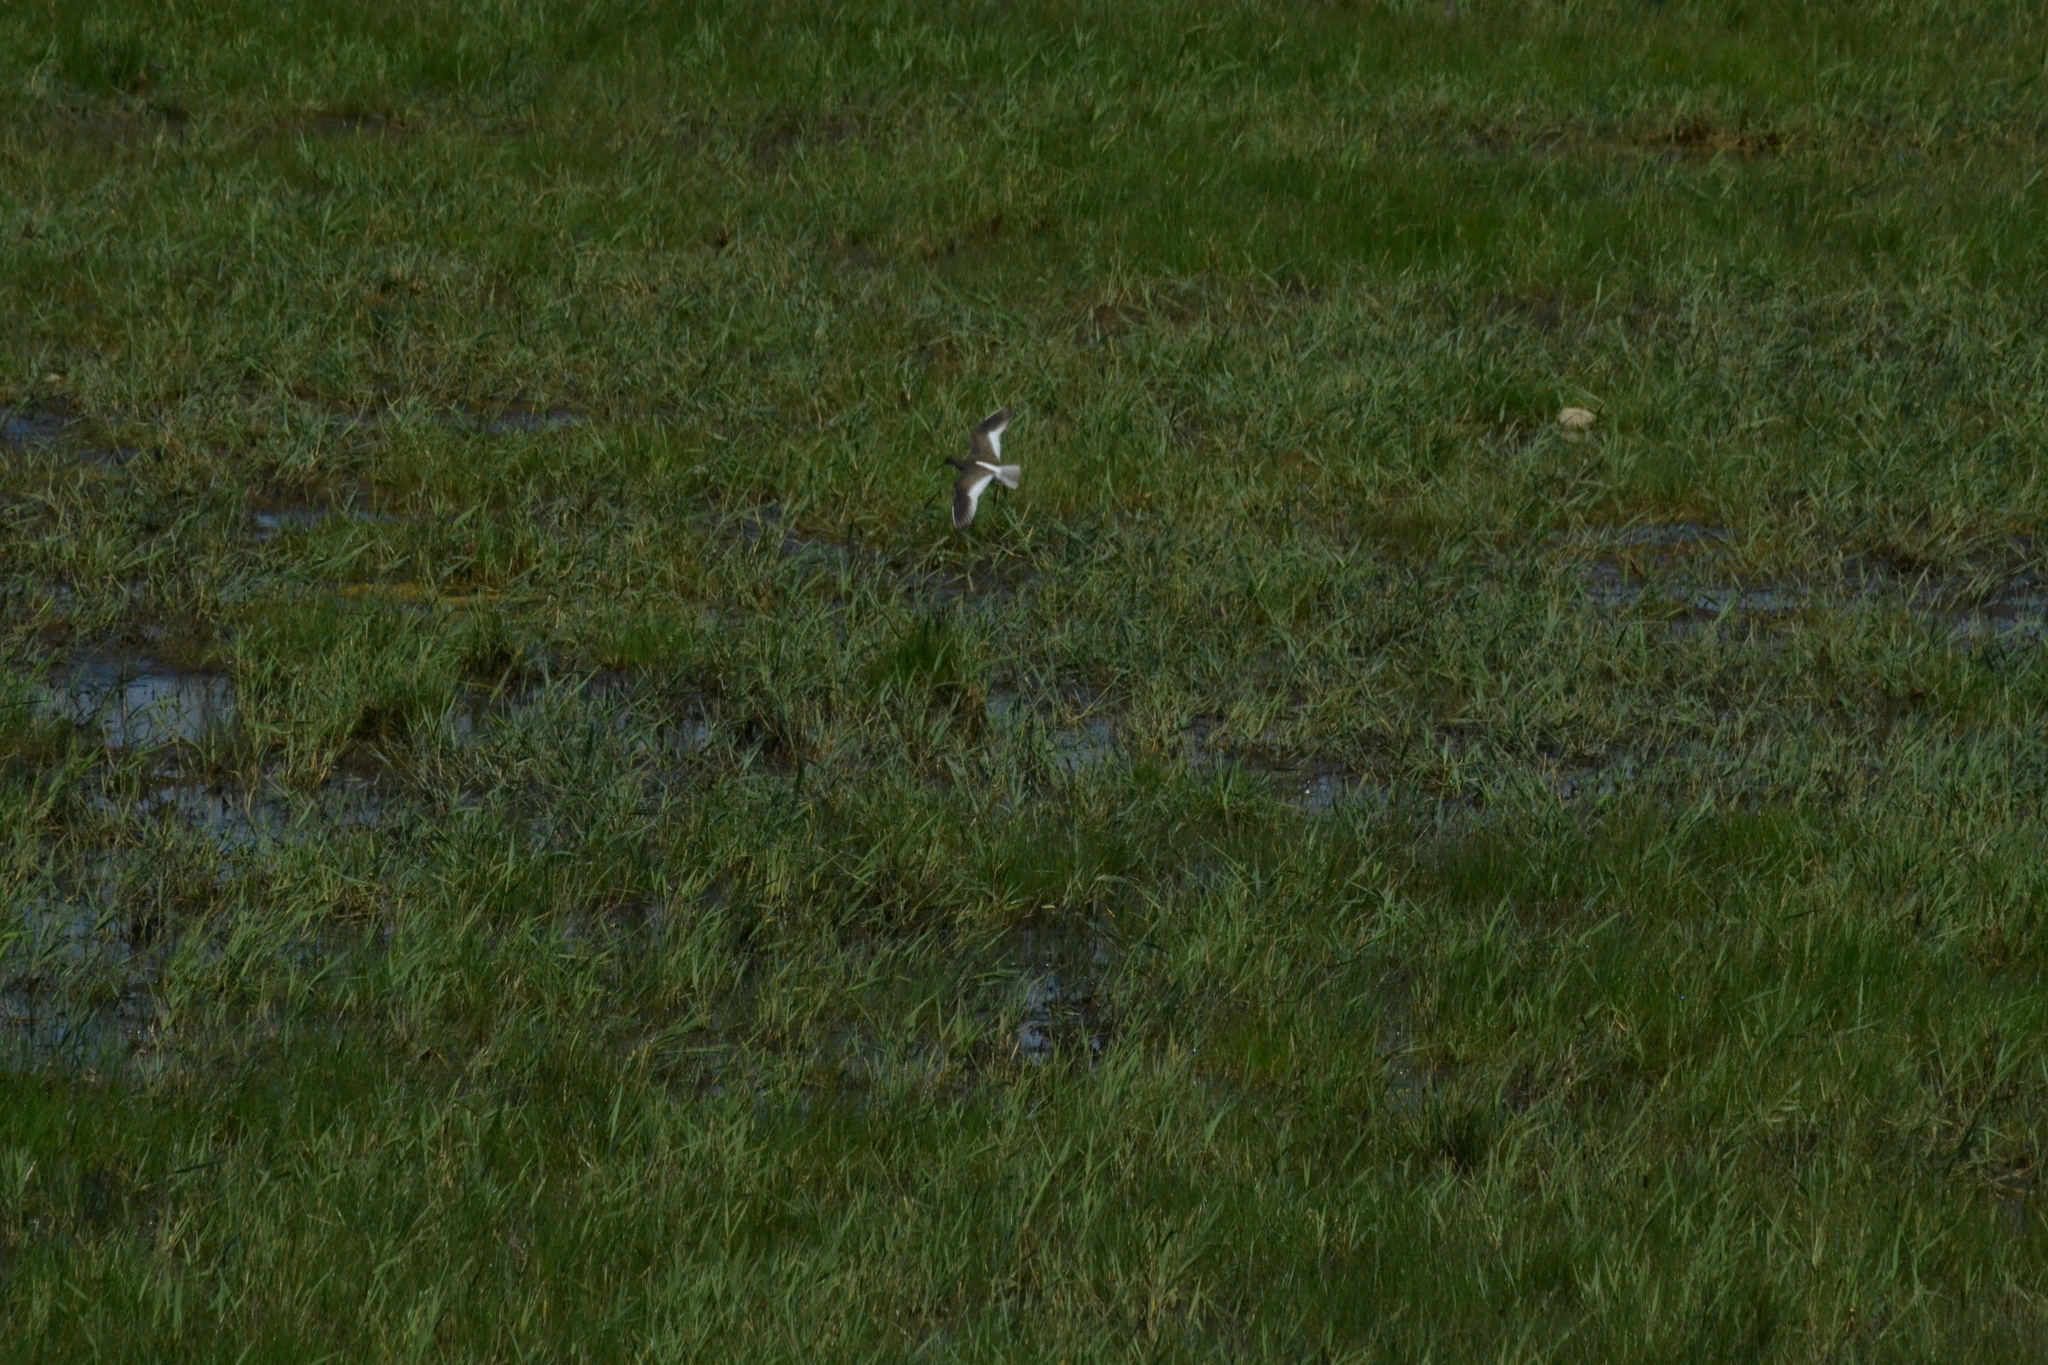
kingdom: Animalia
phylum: Chordata
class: Aves
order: Charadriiformes
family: Scolopacidae
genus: Tringa
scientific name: Tringa totanus
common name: Common redshank
